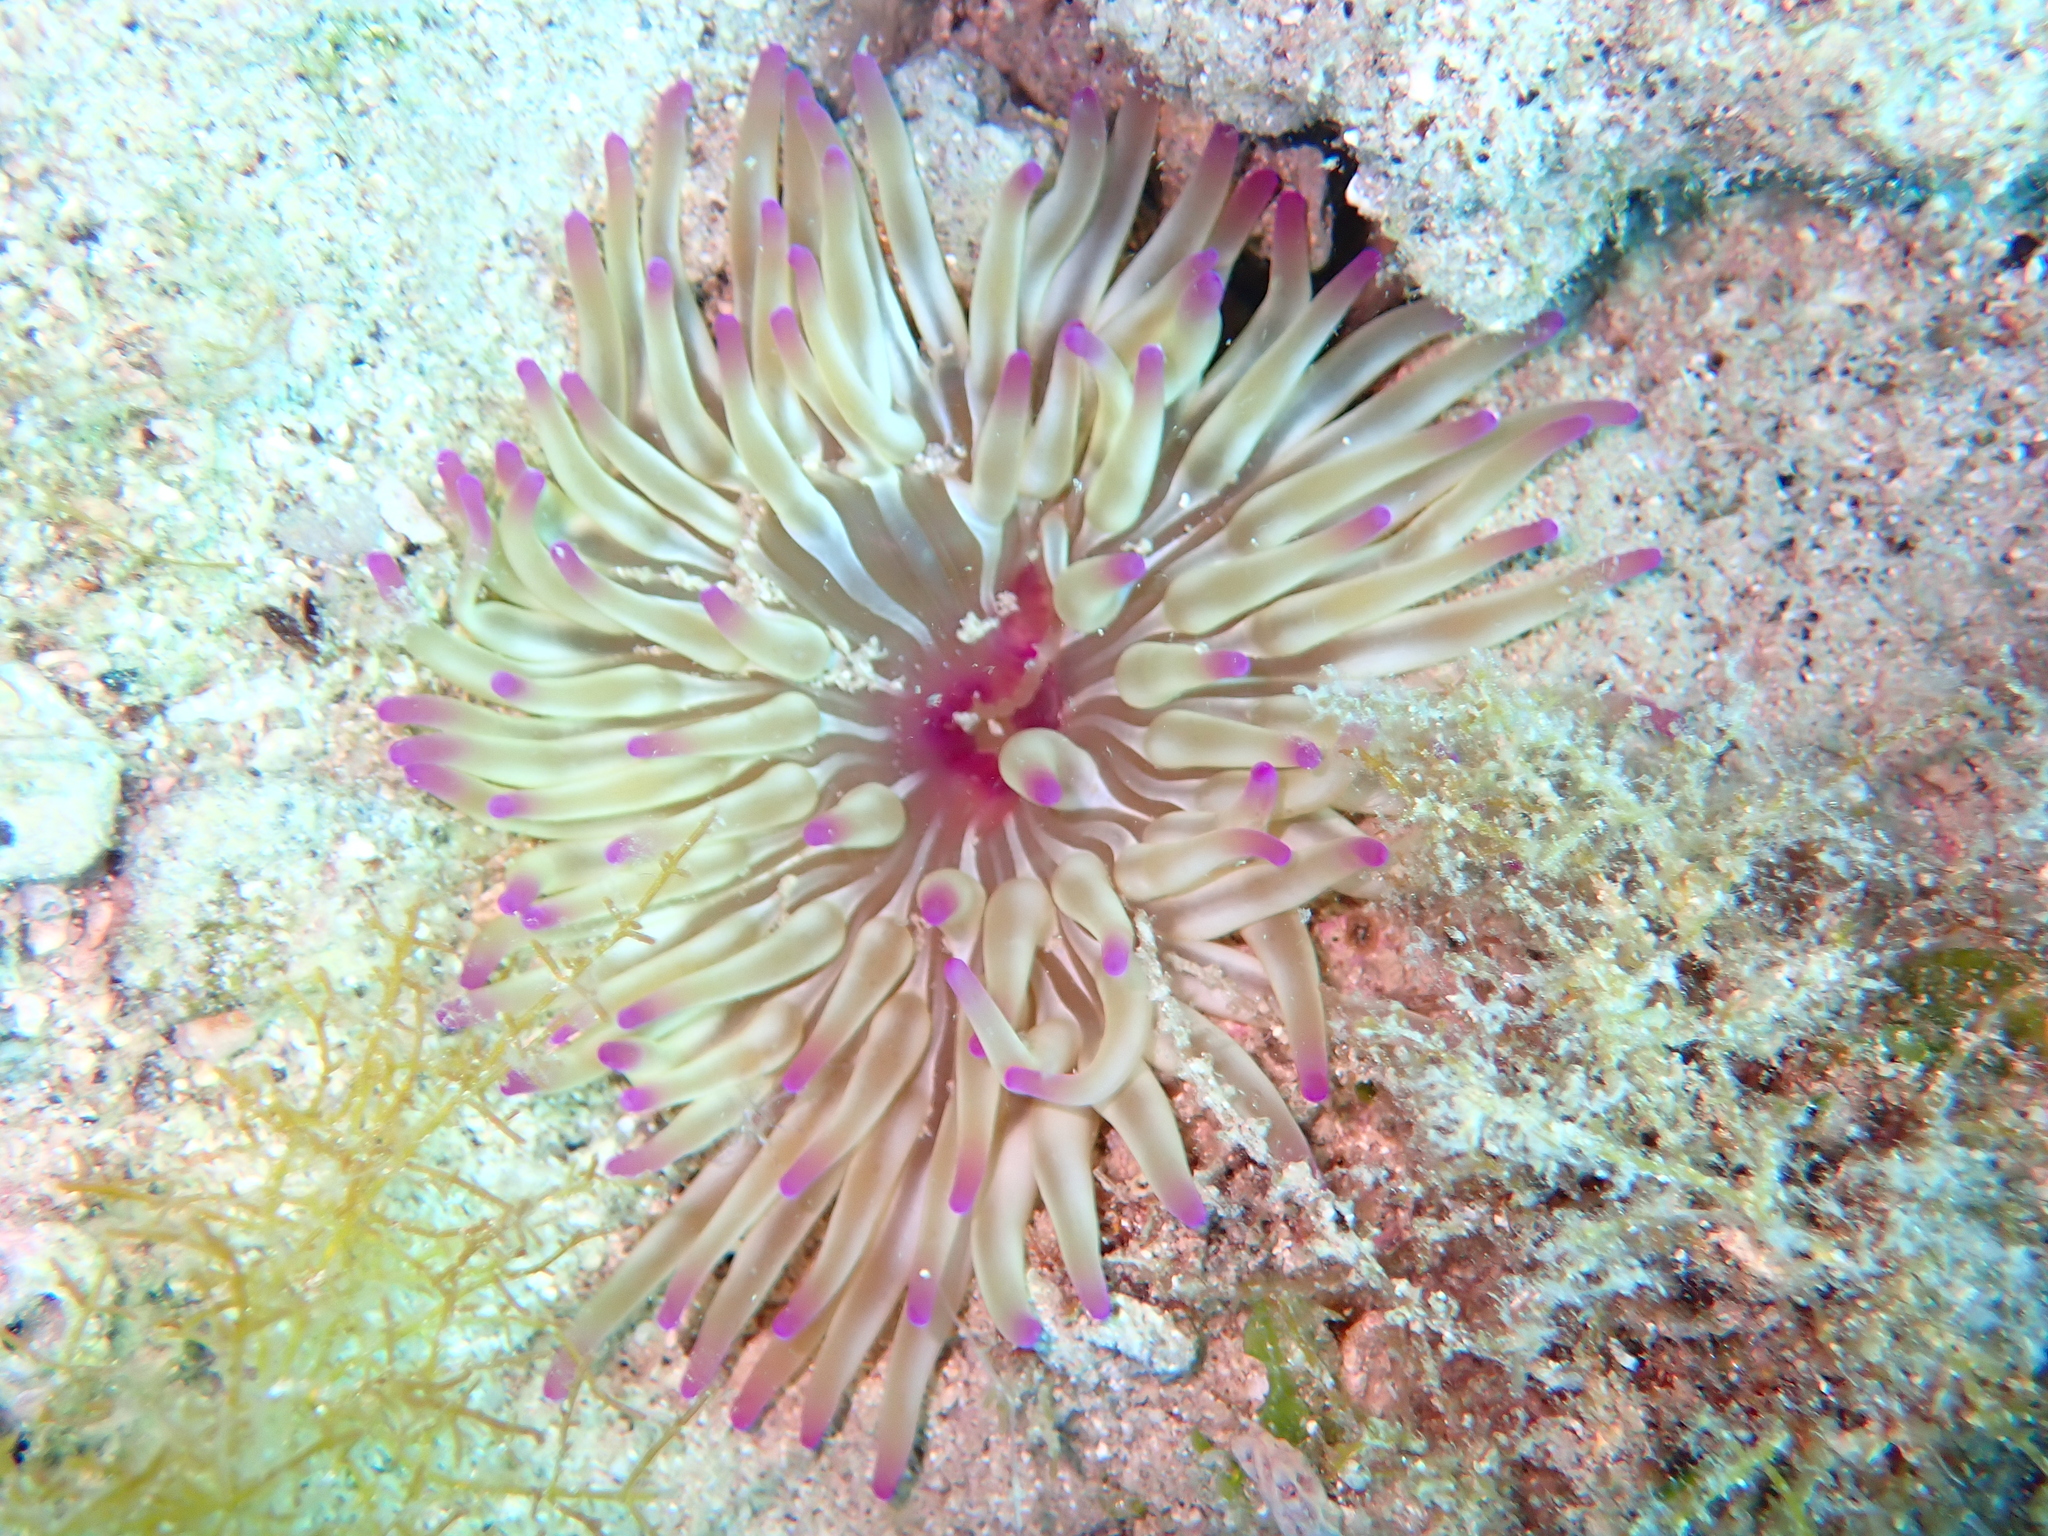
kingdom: Animalia
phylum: Cnidaria
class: Anthozoa
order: Actiniaria
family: Actiniidae
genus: Condylactis
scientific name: Condylactis aurantiaca
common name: Golden anemone
